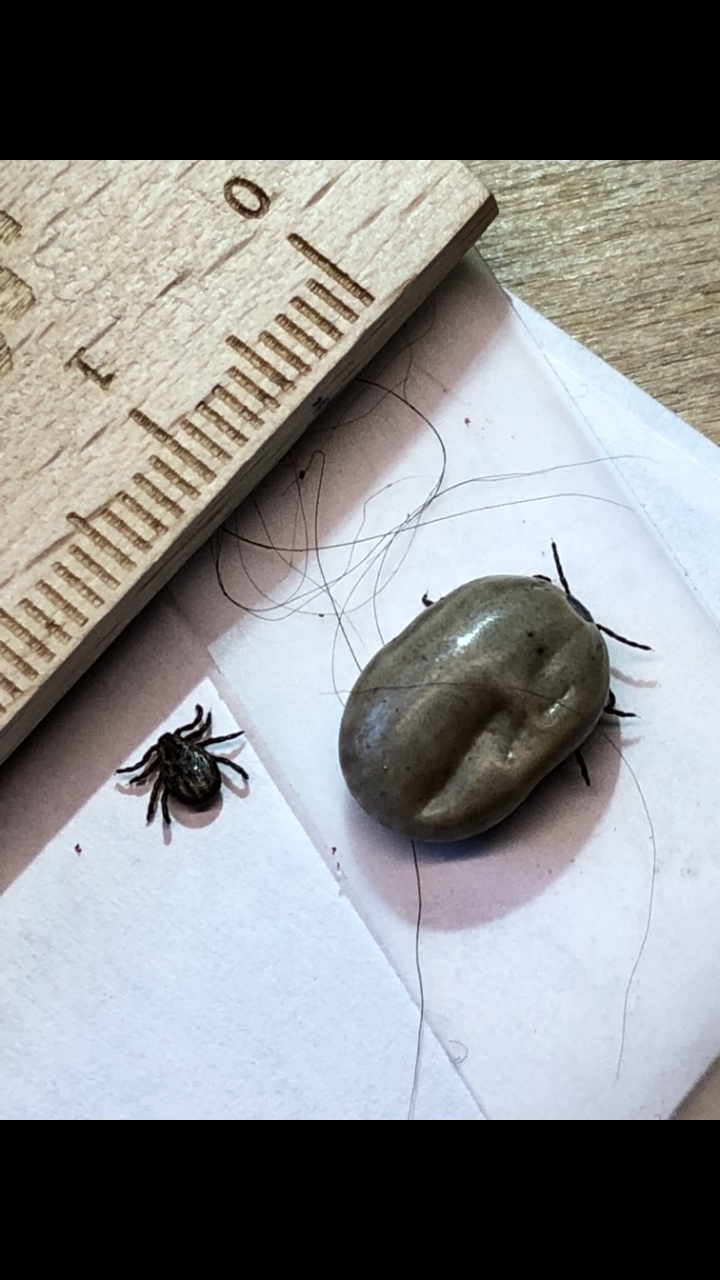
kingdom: Animalia
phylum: Arthropoda
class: Arachnida
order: Ixodida
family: Ixodidae
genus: Dermacentor
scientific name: Dermacentor
